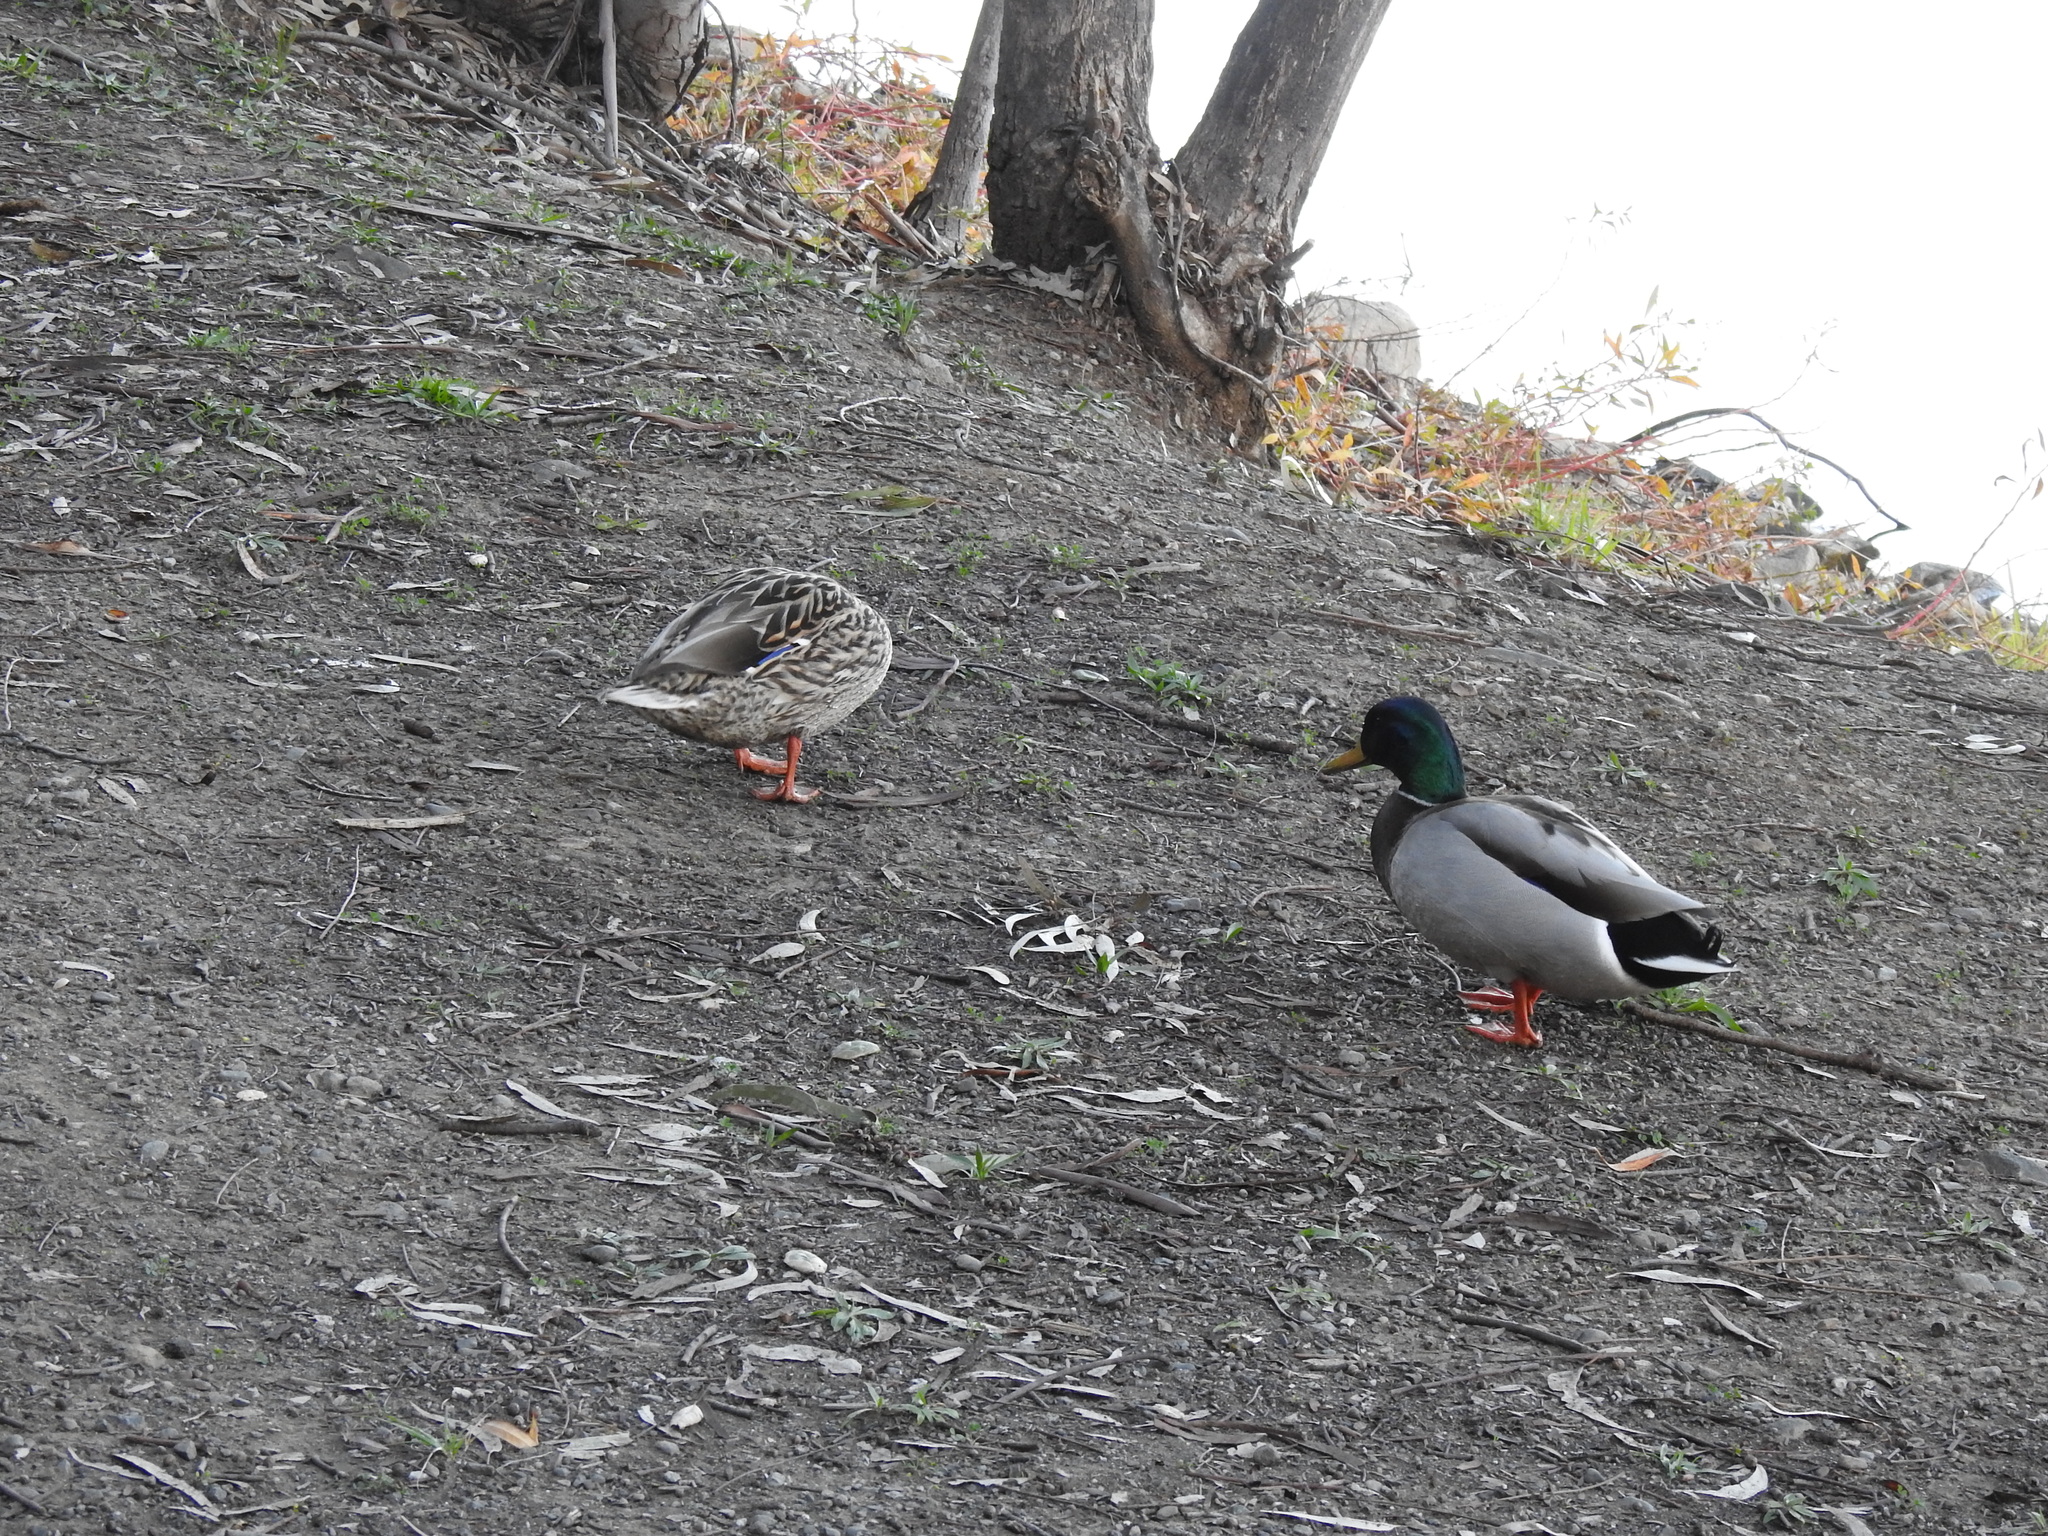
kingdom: Animalia
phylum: Chordata
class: Aves
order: Anseriformes
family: Anatidae
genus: Anas
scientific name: Anas platyrhynchos
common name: Mallard
